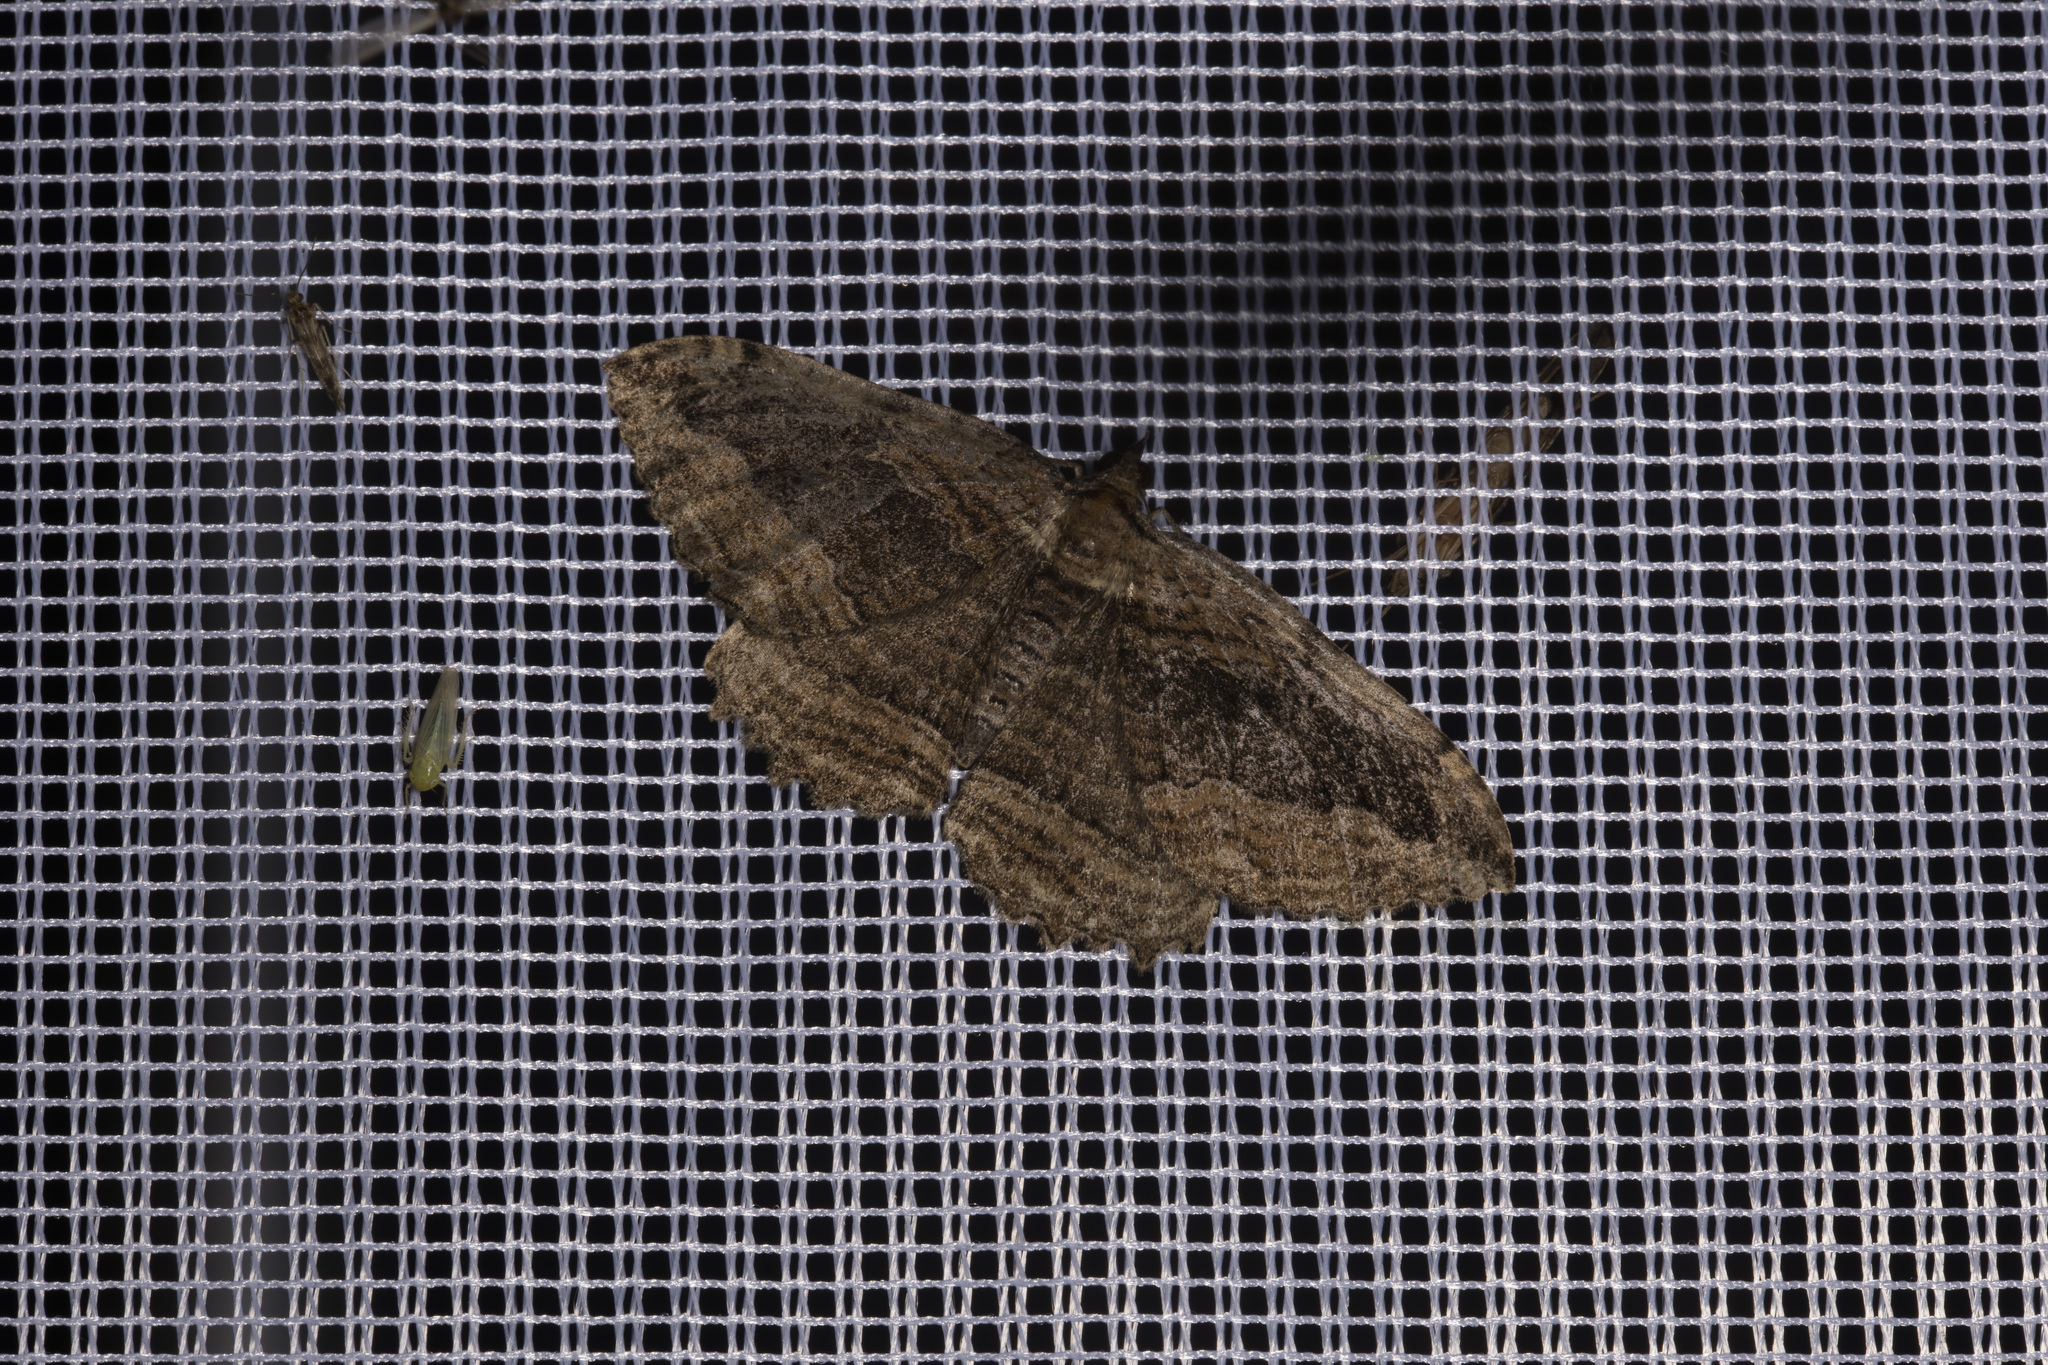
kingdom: Animalia
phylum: Arthropoda
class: Insecta
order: Lepidoptera
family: Geometridae
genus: Philereme
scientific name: Philereme transversata
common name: Dark umber
